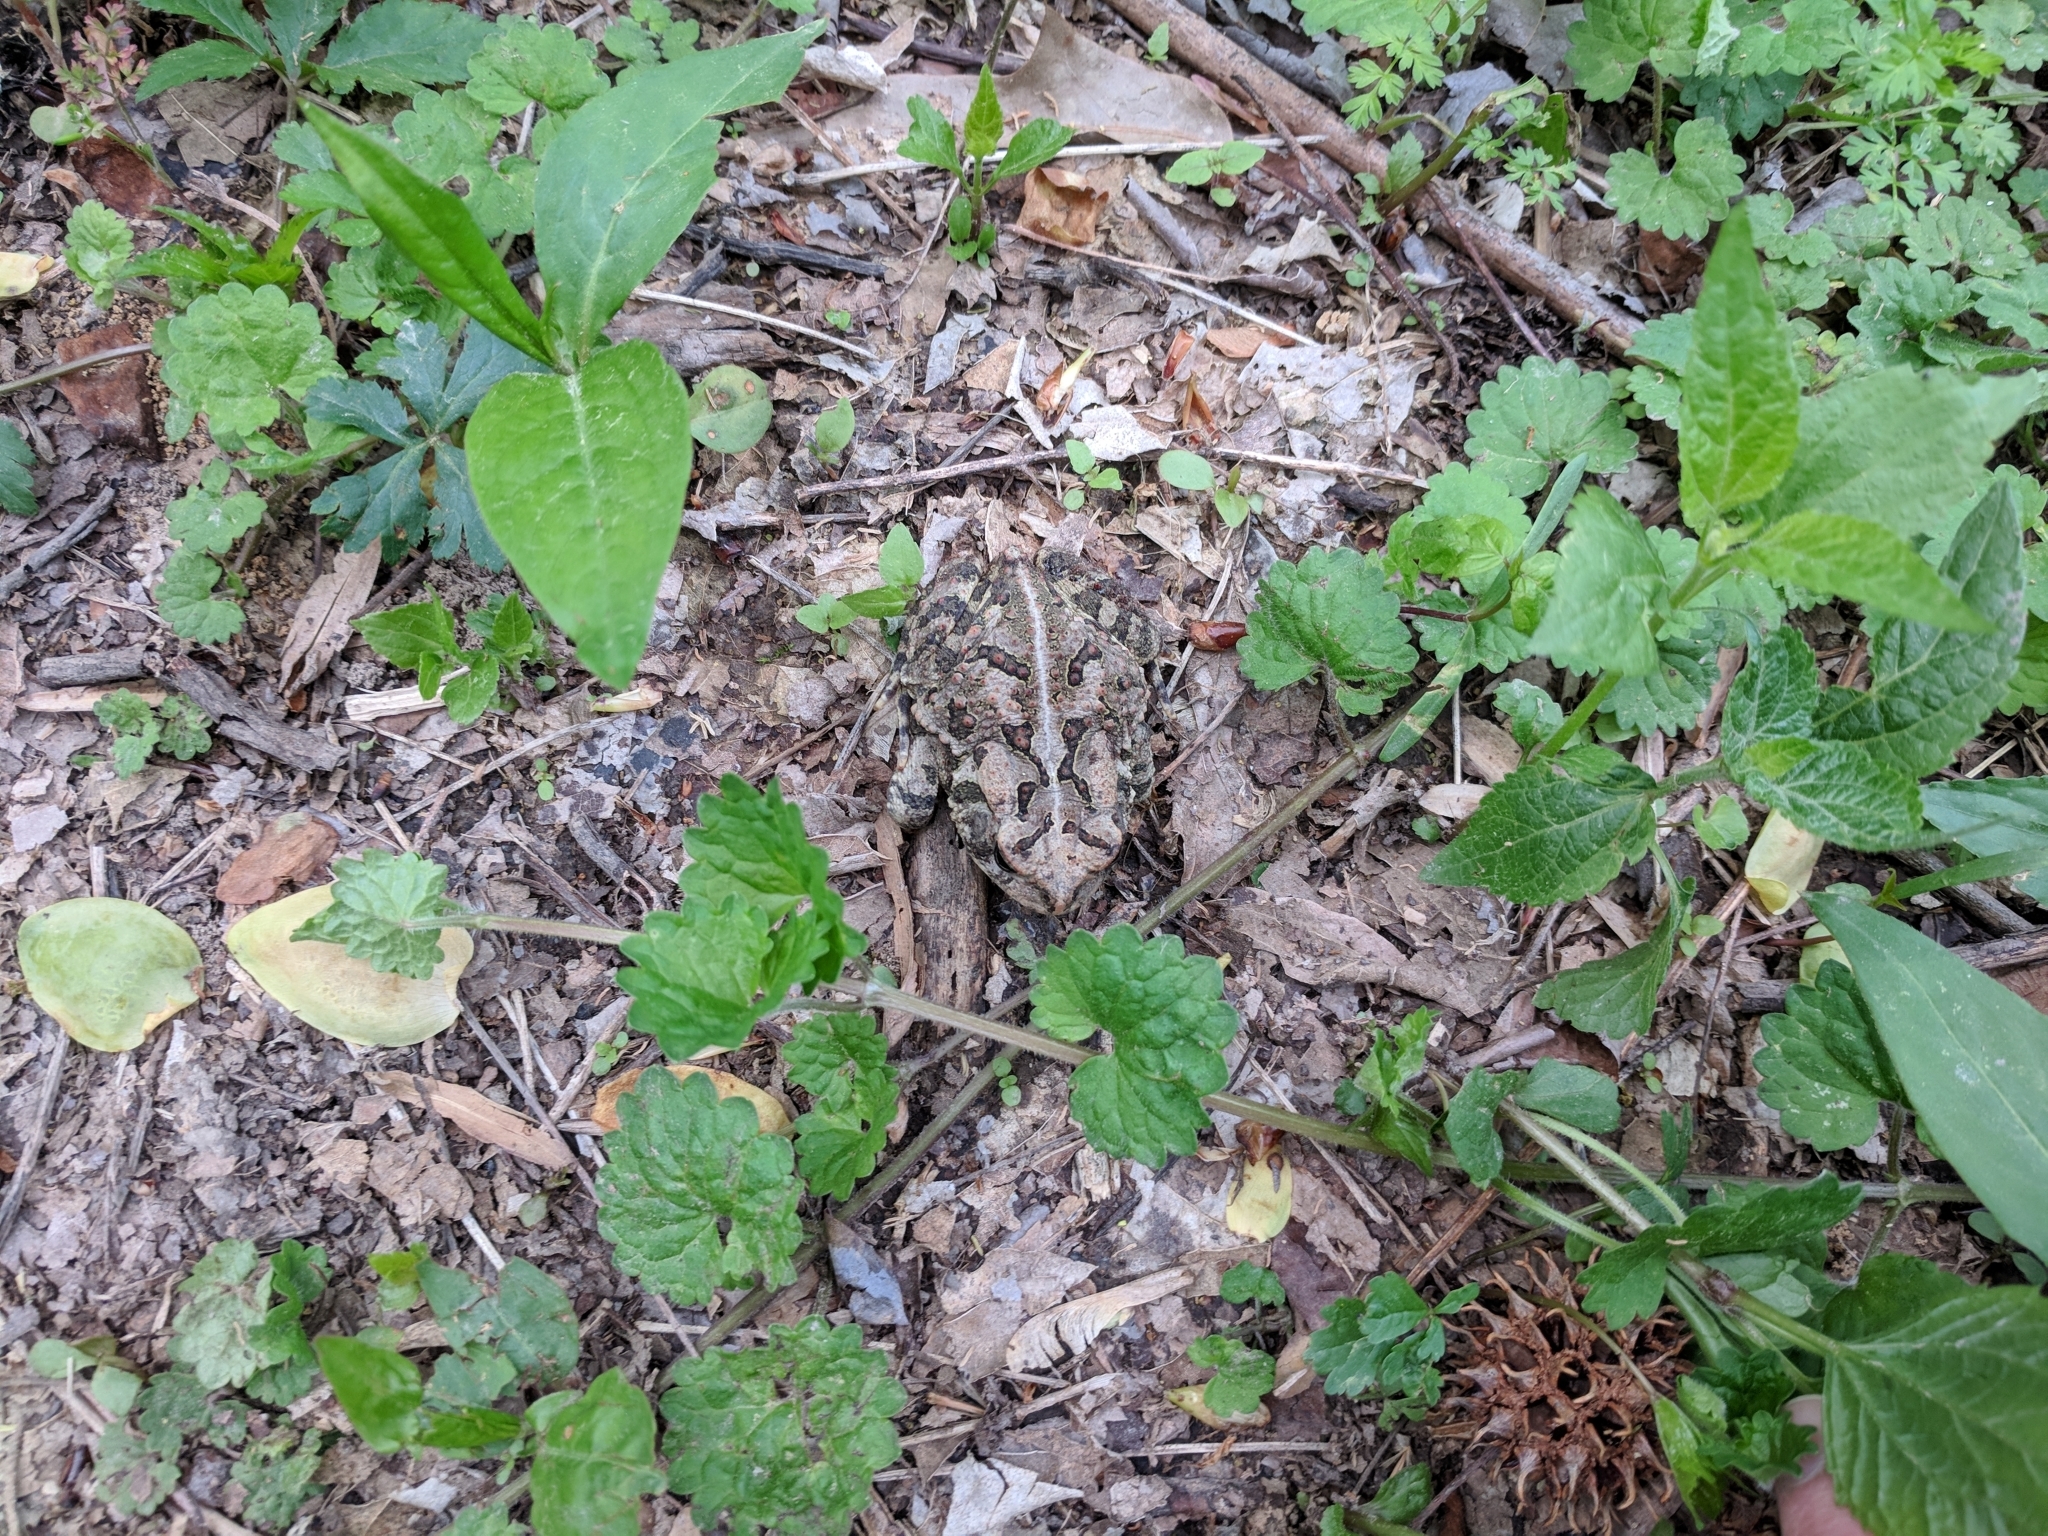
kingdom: Animalia
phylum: Chordata
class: Amphibia
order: Anura
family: Bufonidae
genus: Anaxyrus
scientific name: Anaxyrus americanus
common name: American toad
